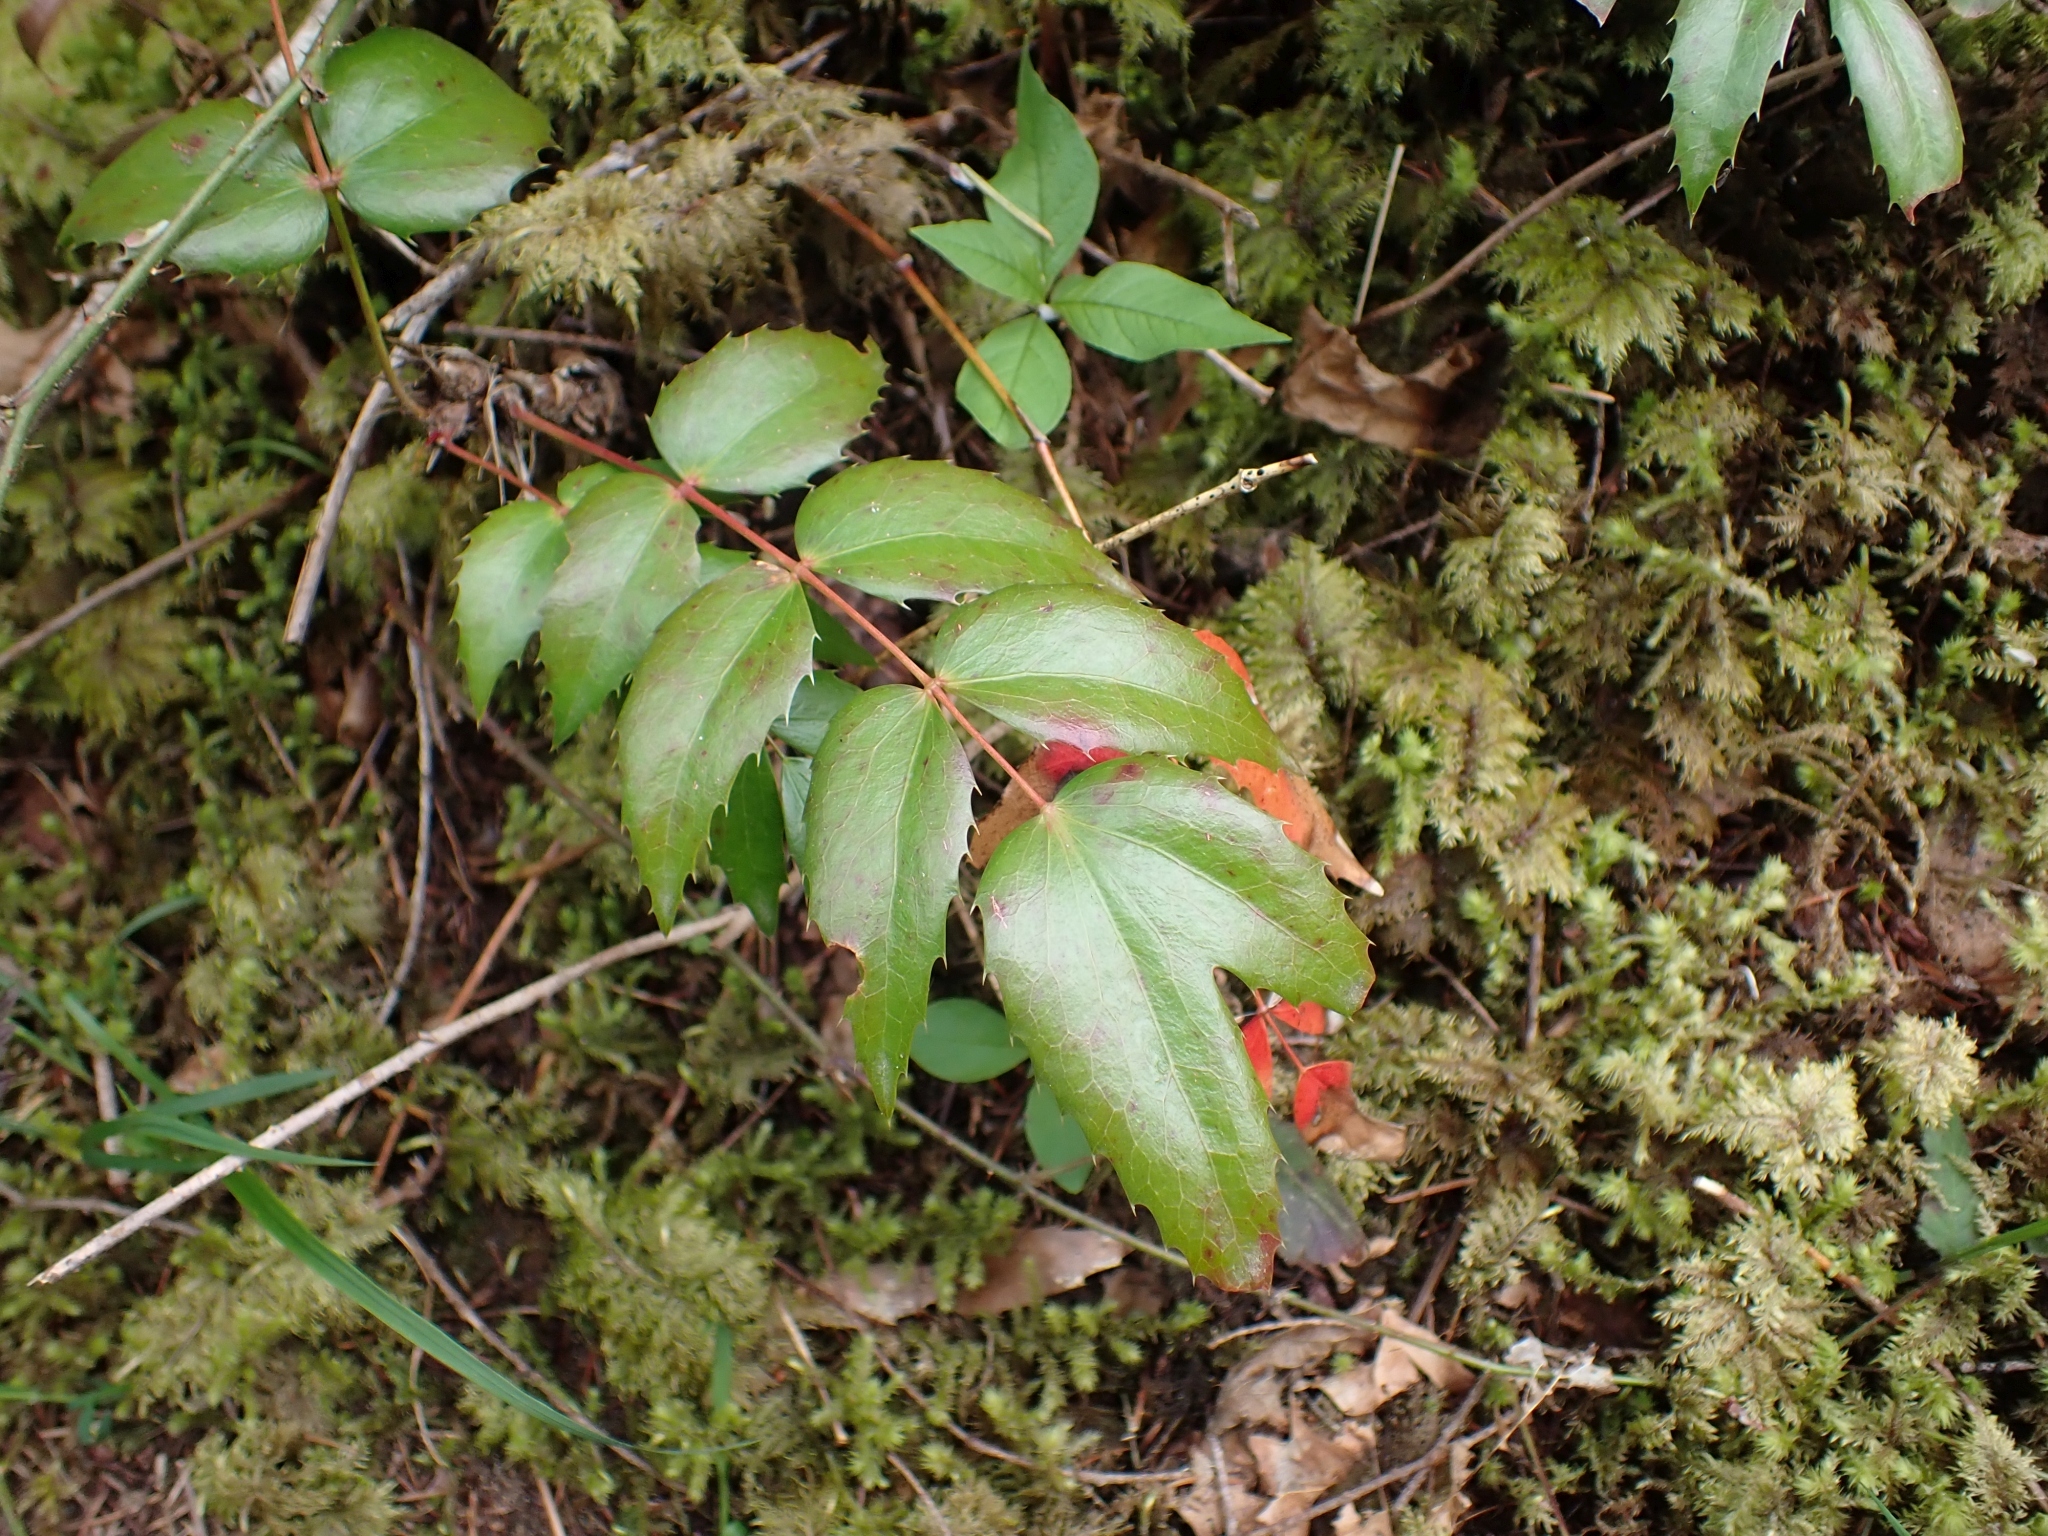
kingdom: Plantae
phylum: Tracheophyta
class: Magnoliopsida
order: Ranunculales
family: Berberidaceae
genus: Mahonia
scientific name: Mahonia nervosa
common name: Cascade oregon-grape
